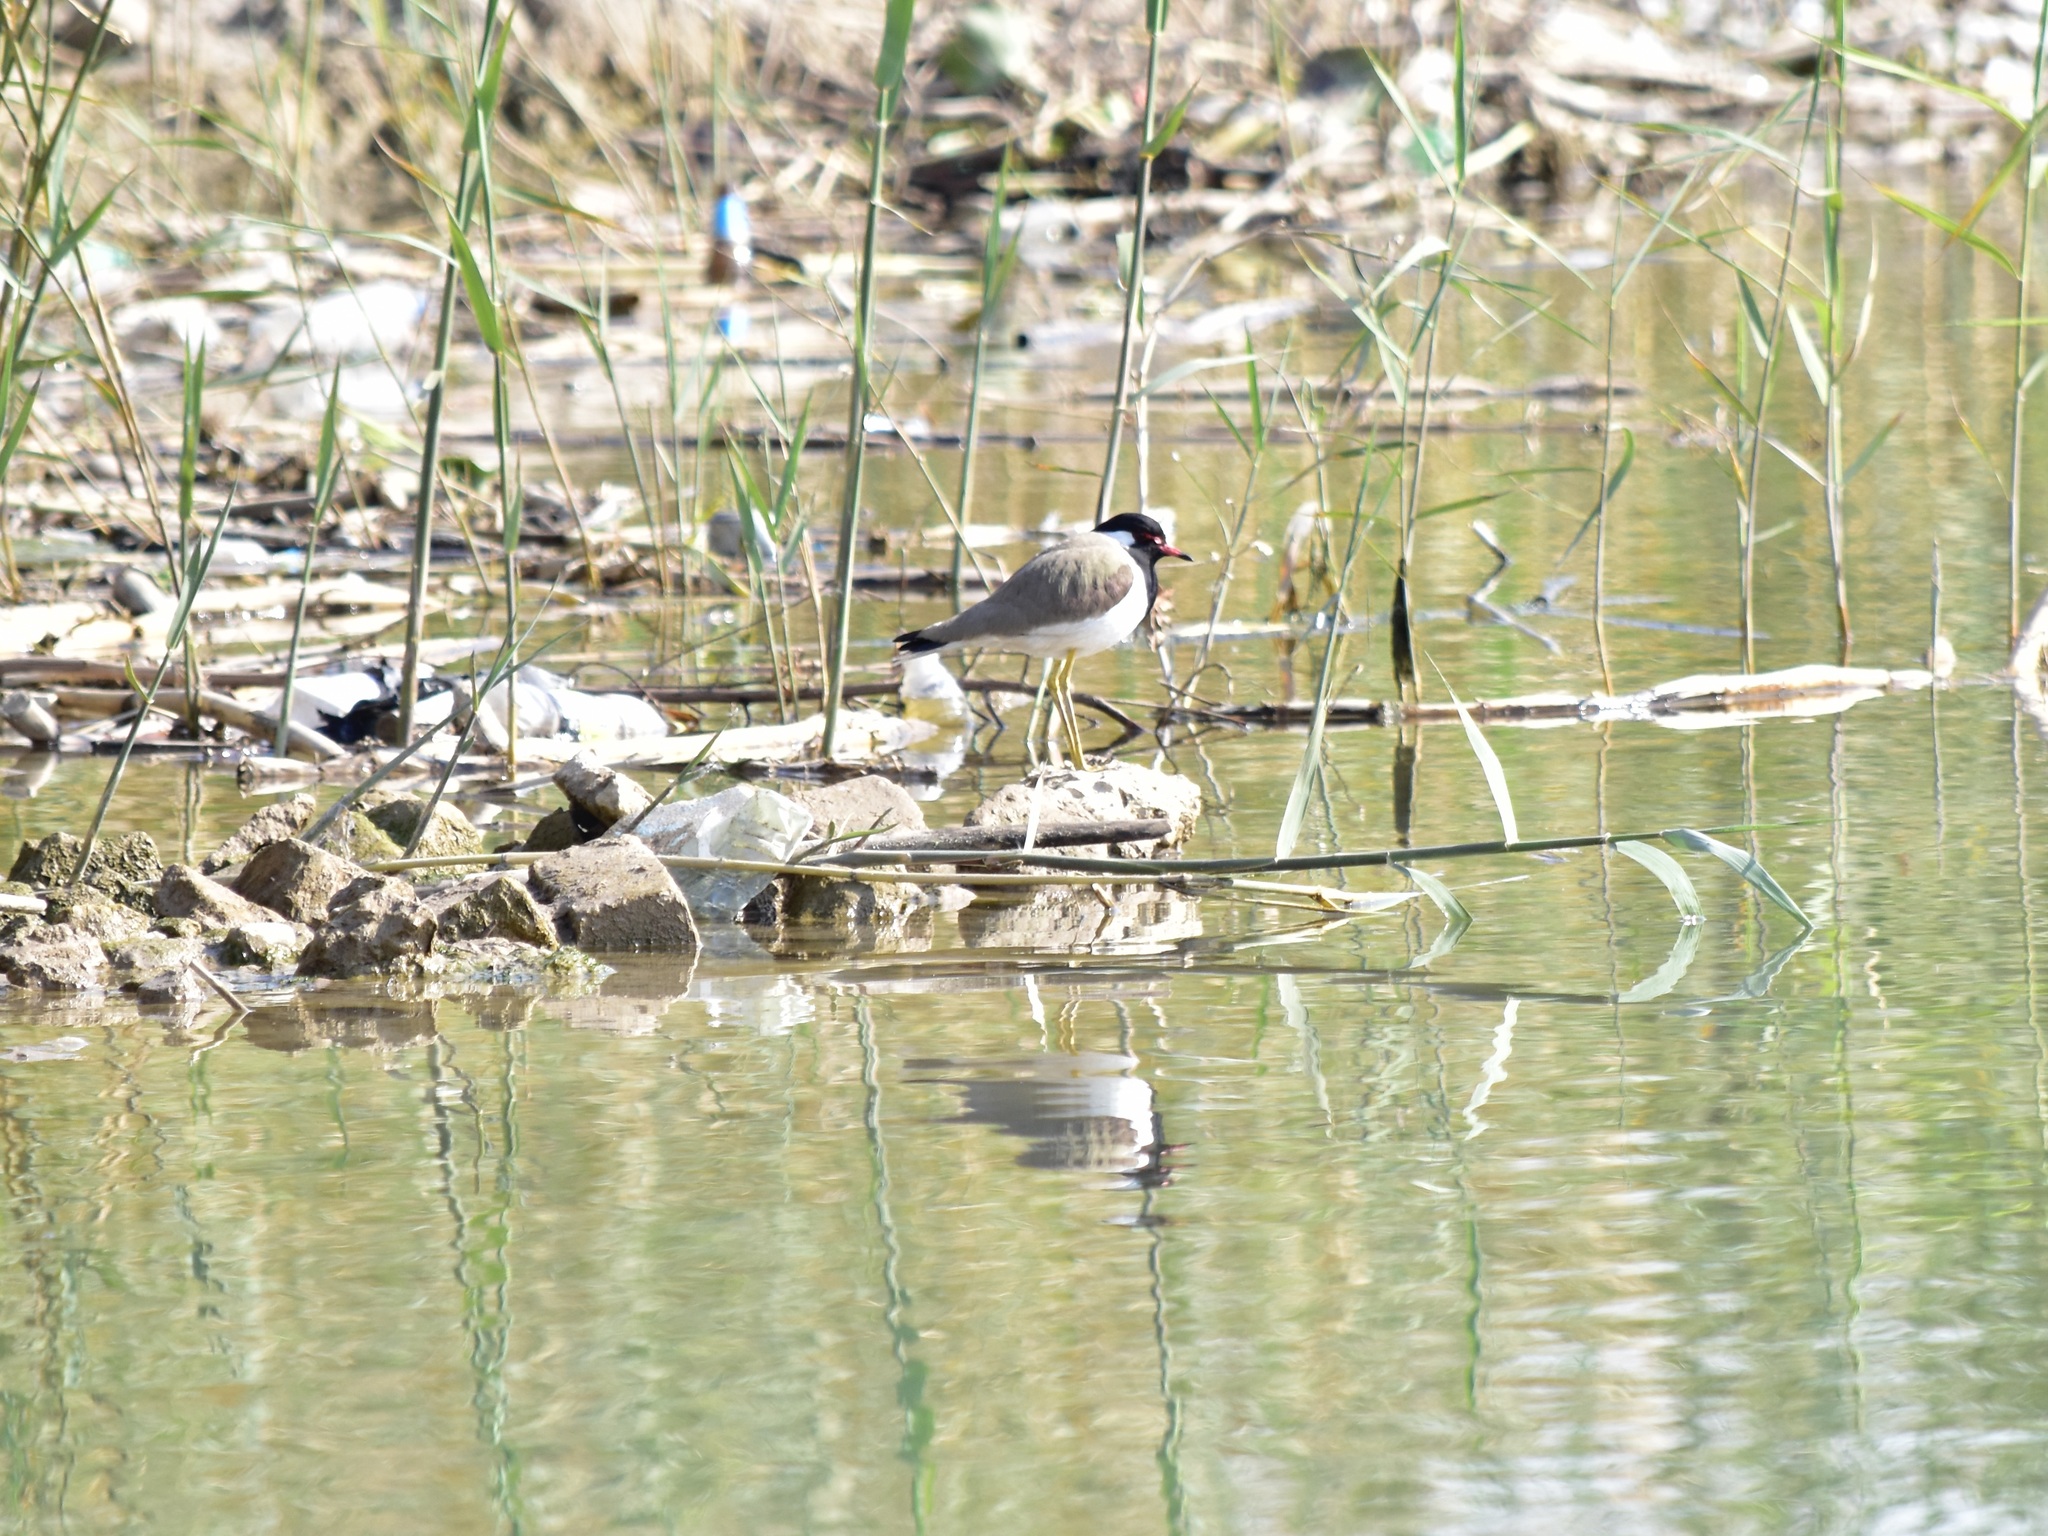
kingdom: Animalia
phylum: Chordata
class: Aves
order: Charadriiformes
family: Charadriidae
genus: Vanellus
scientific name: Vanellus indicus
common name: Red-wattled lapwing
